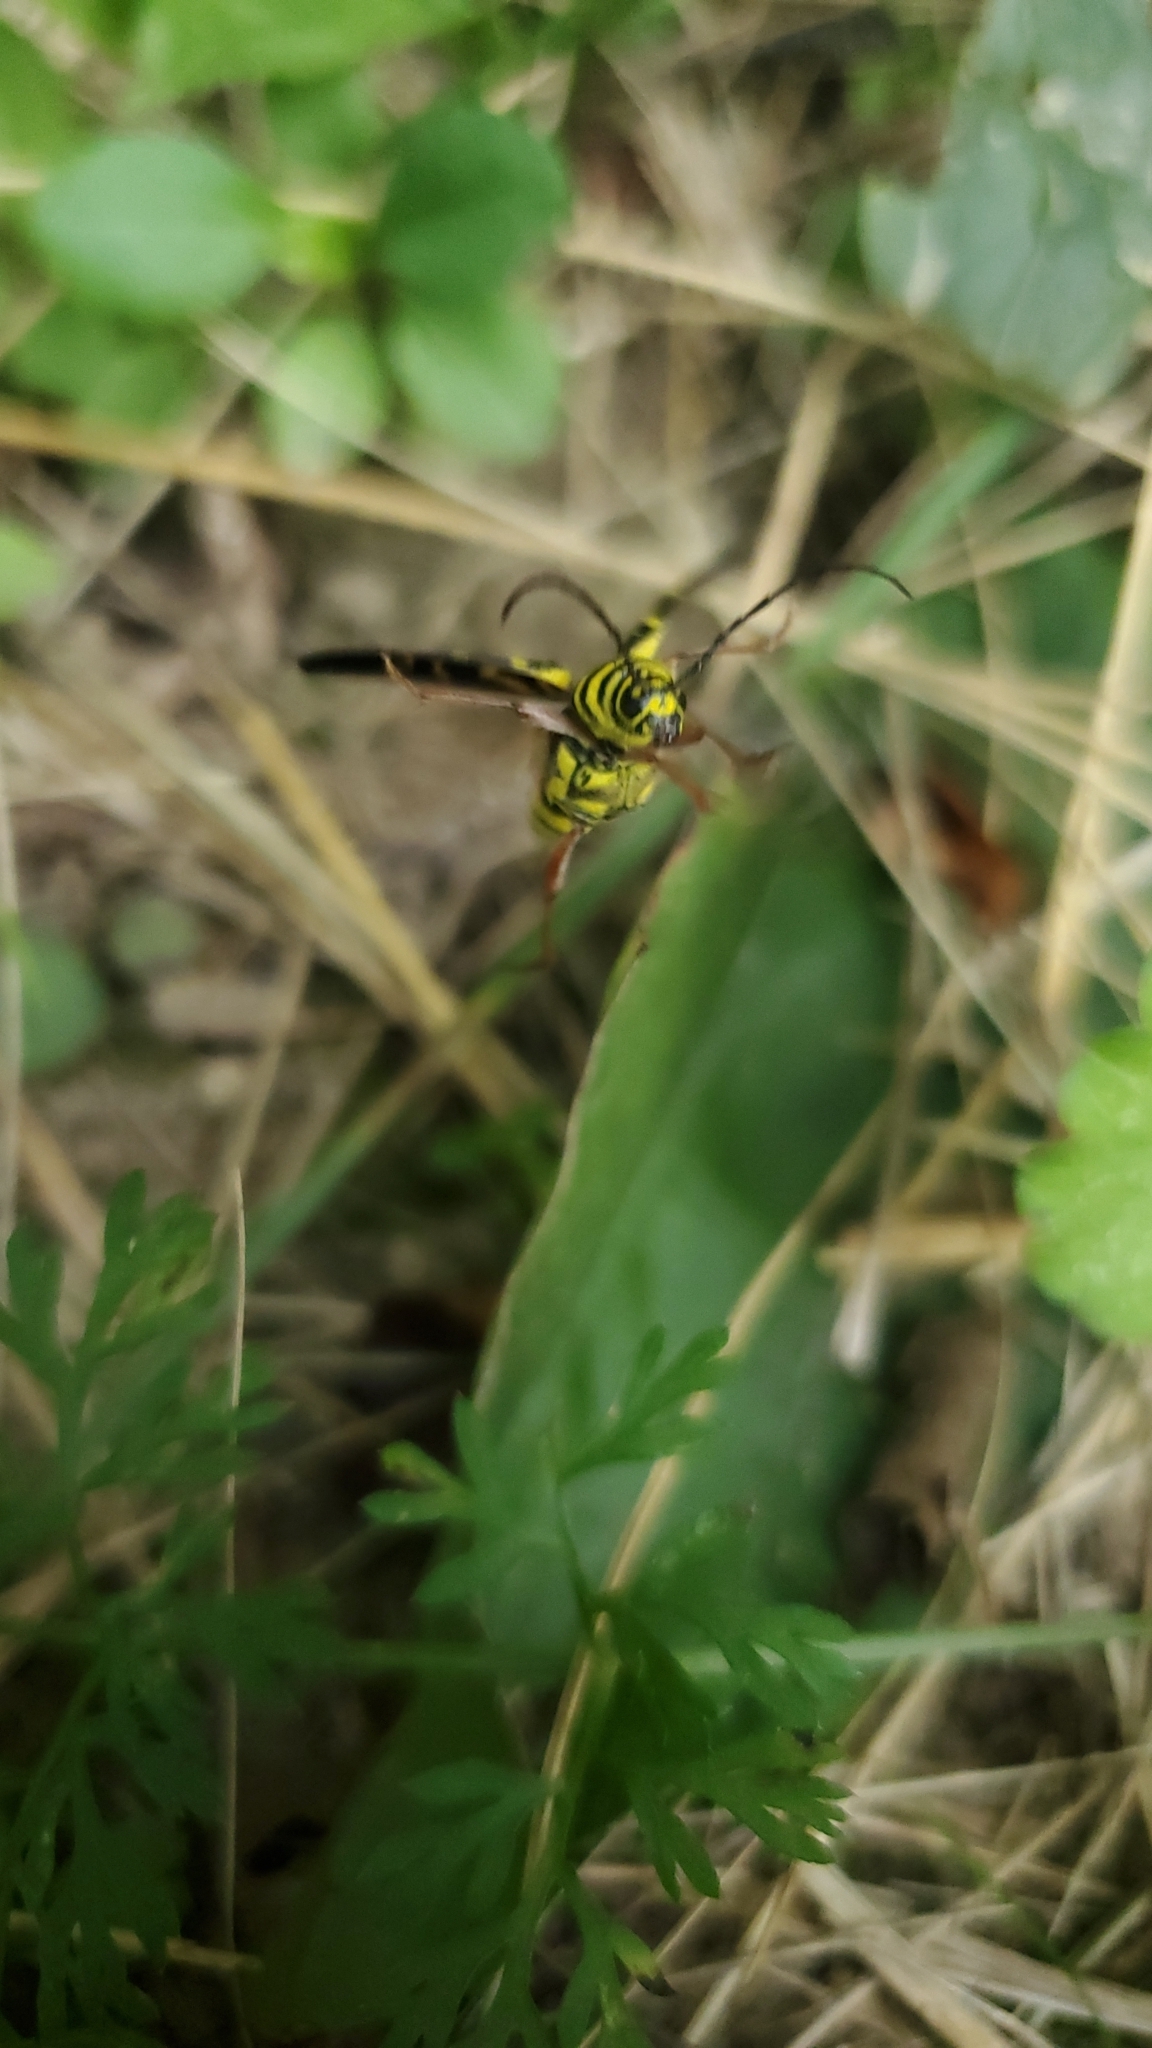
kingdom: Animalia
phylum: Arthropoda
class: Insecta
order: Coleoptera
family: Cerambycidae
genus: Megacyllene
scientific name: Megacyllene robiniae
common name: Locust borer
